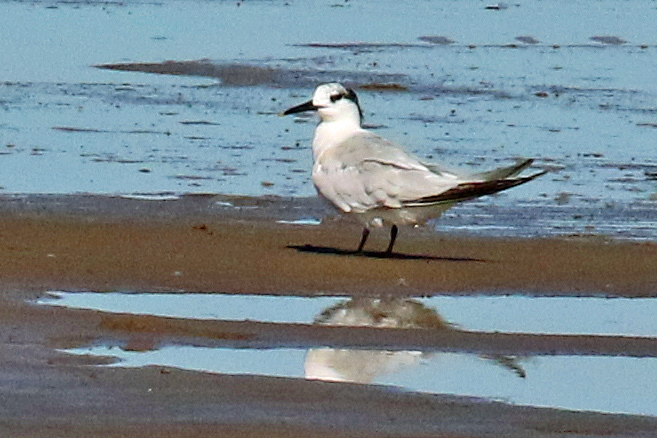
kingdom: Animalia
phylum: Chordata
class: Aves
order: Charadriiformes
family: Laridae
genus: Thalasseus
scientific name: Thalasseus sandvicensis
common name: Sandwich tern
